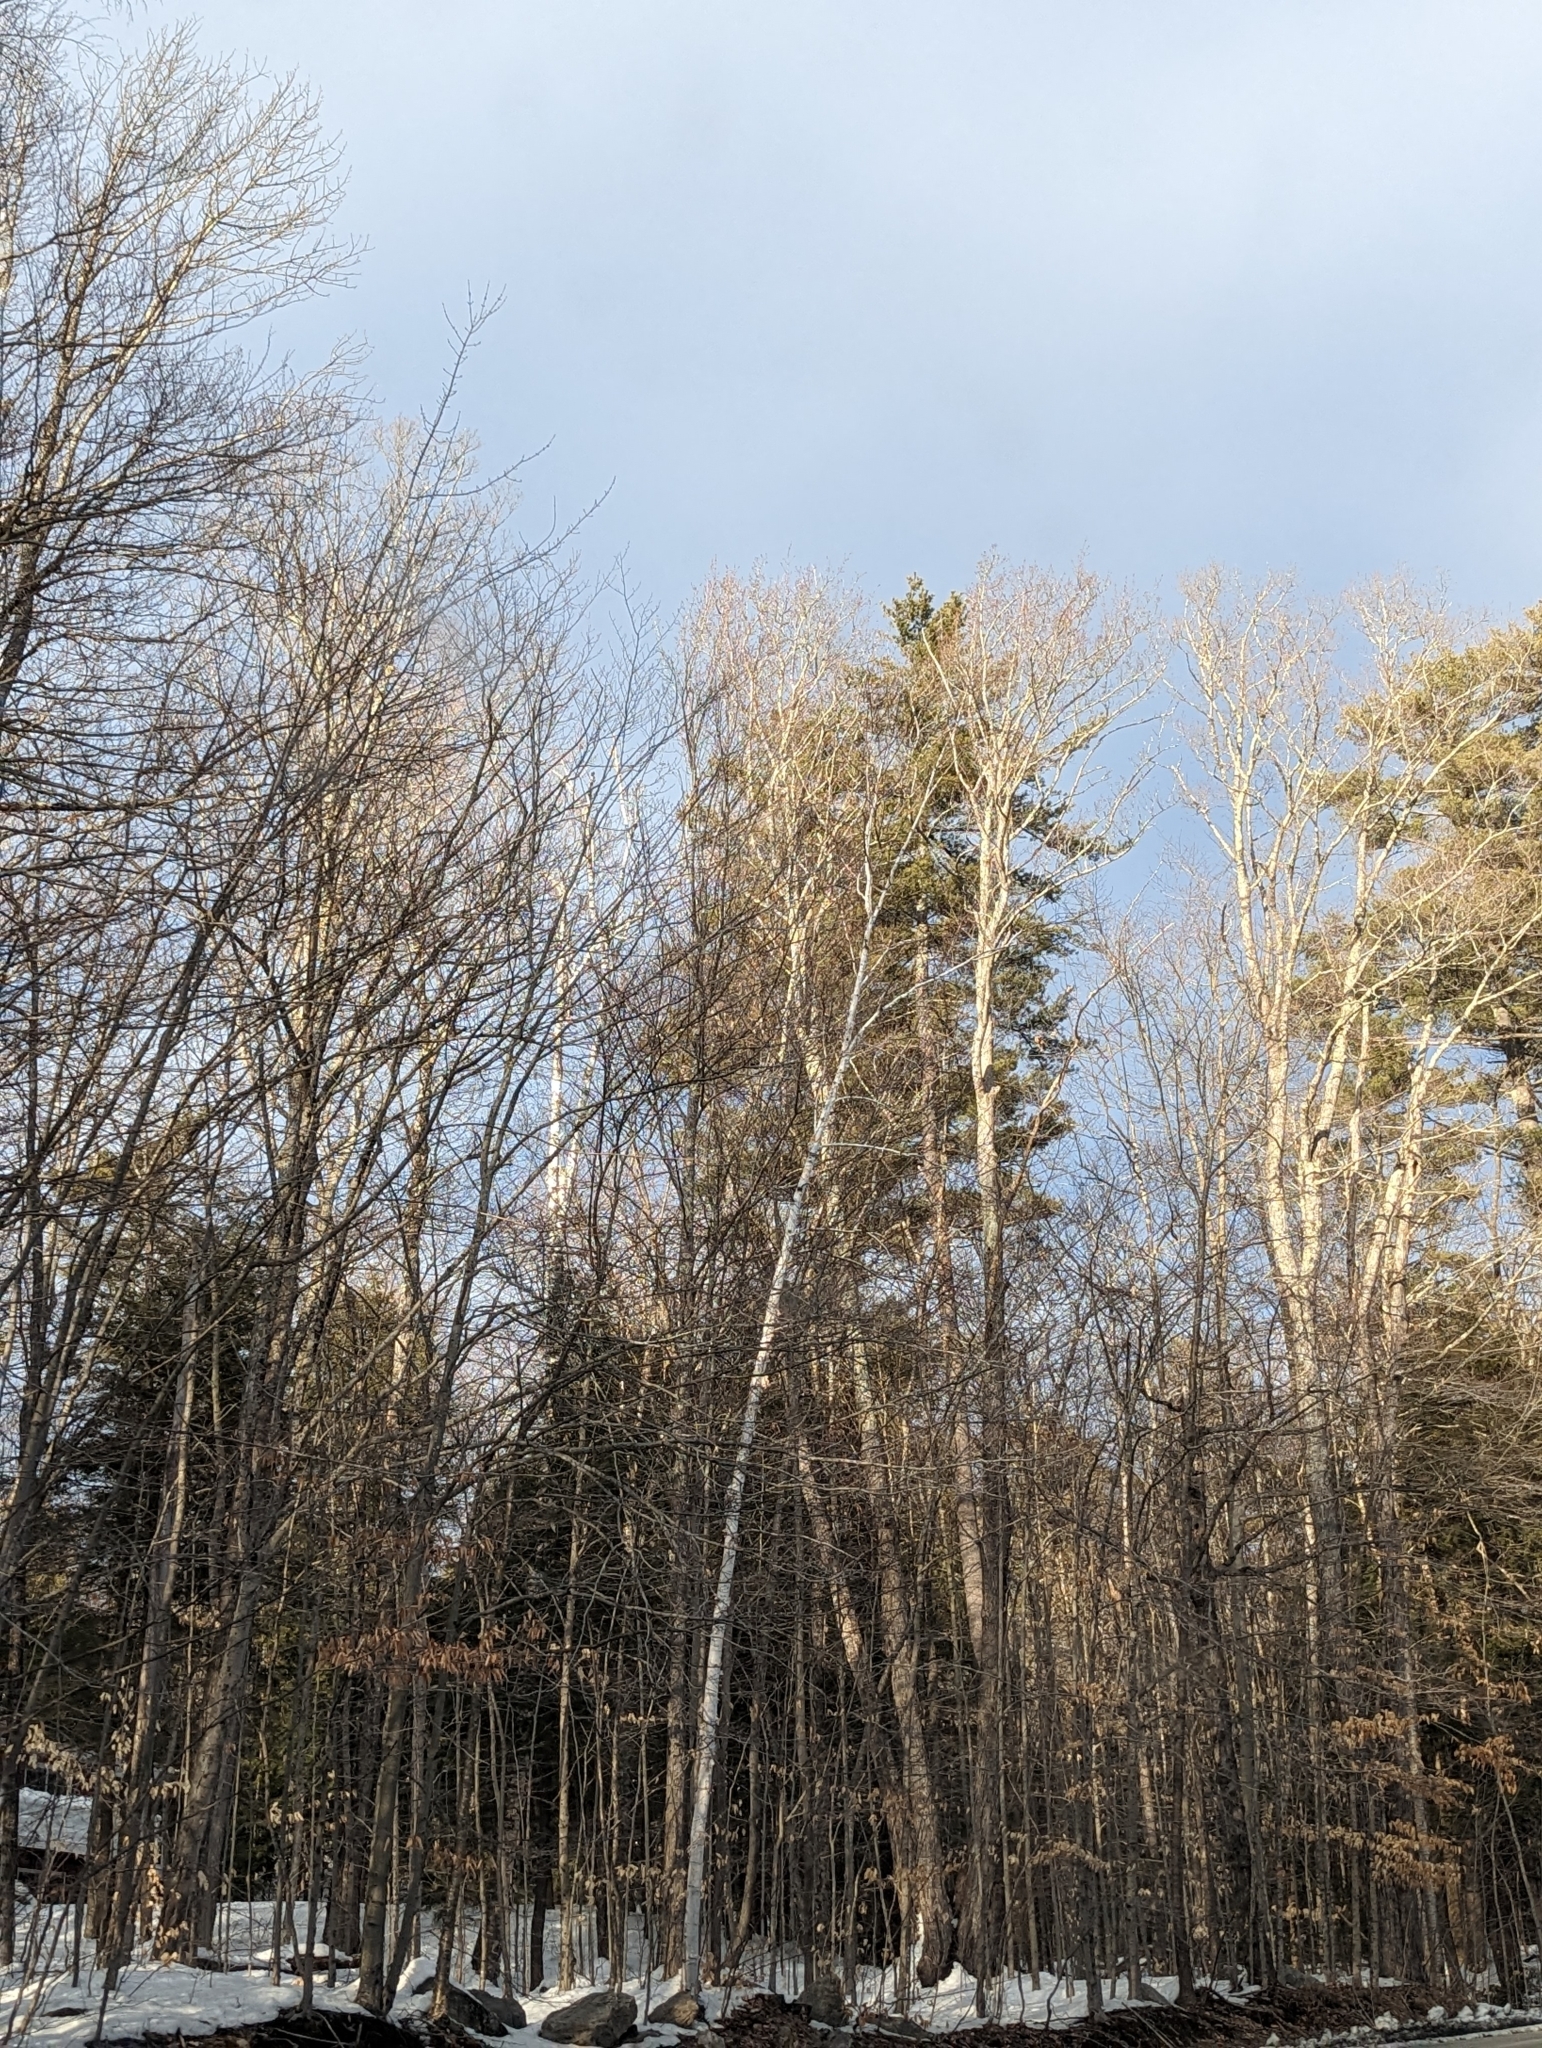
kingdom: Plantae
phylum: Tracheophyta
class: Pinopsida
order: Pinales
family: Pinaceae
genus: Pinus
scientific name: Pinus strobus
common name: Weymouth pine
